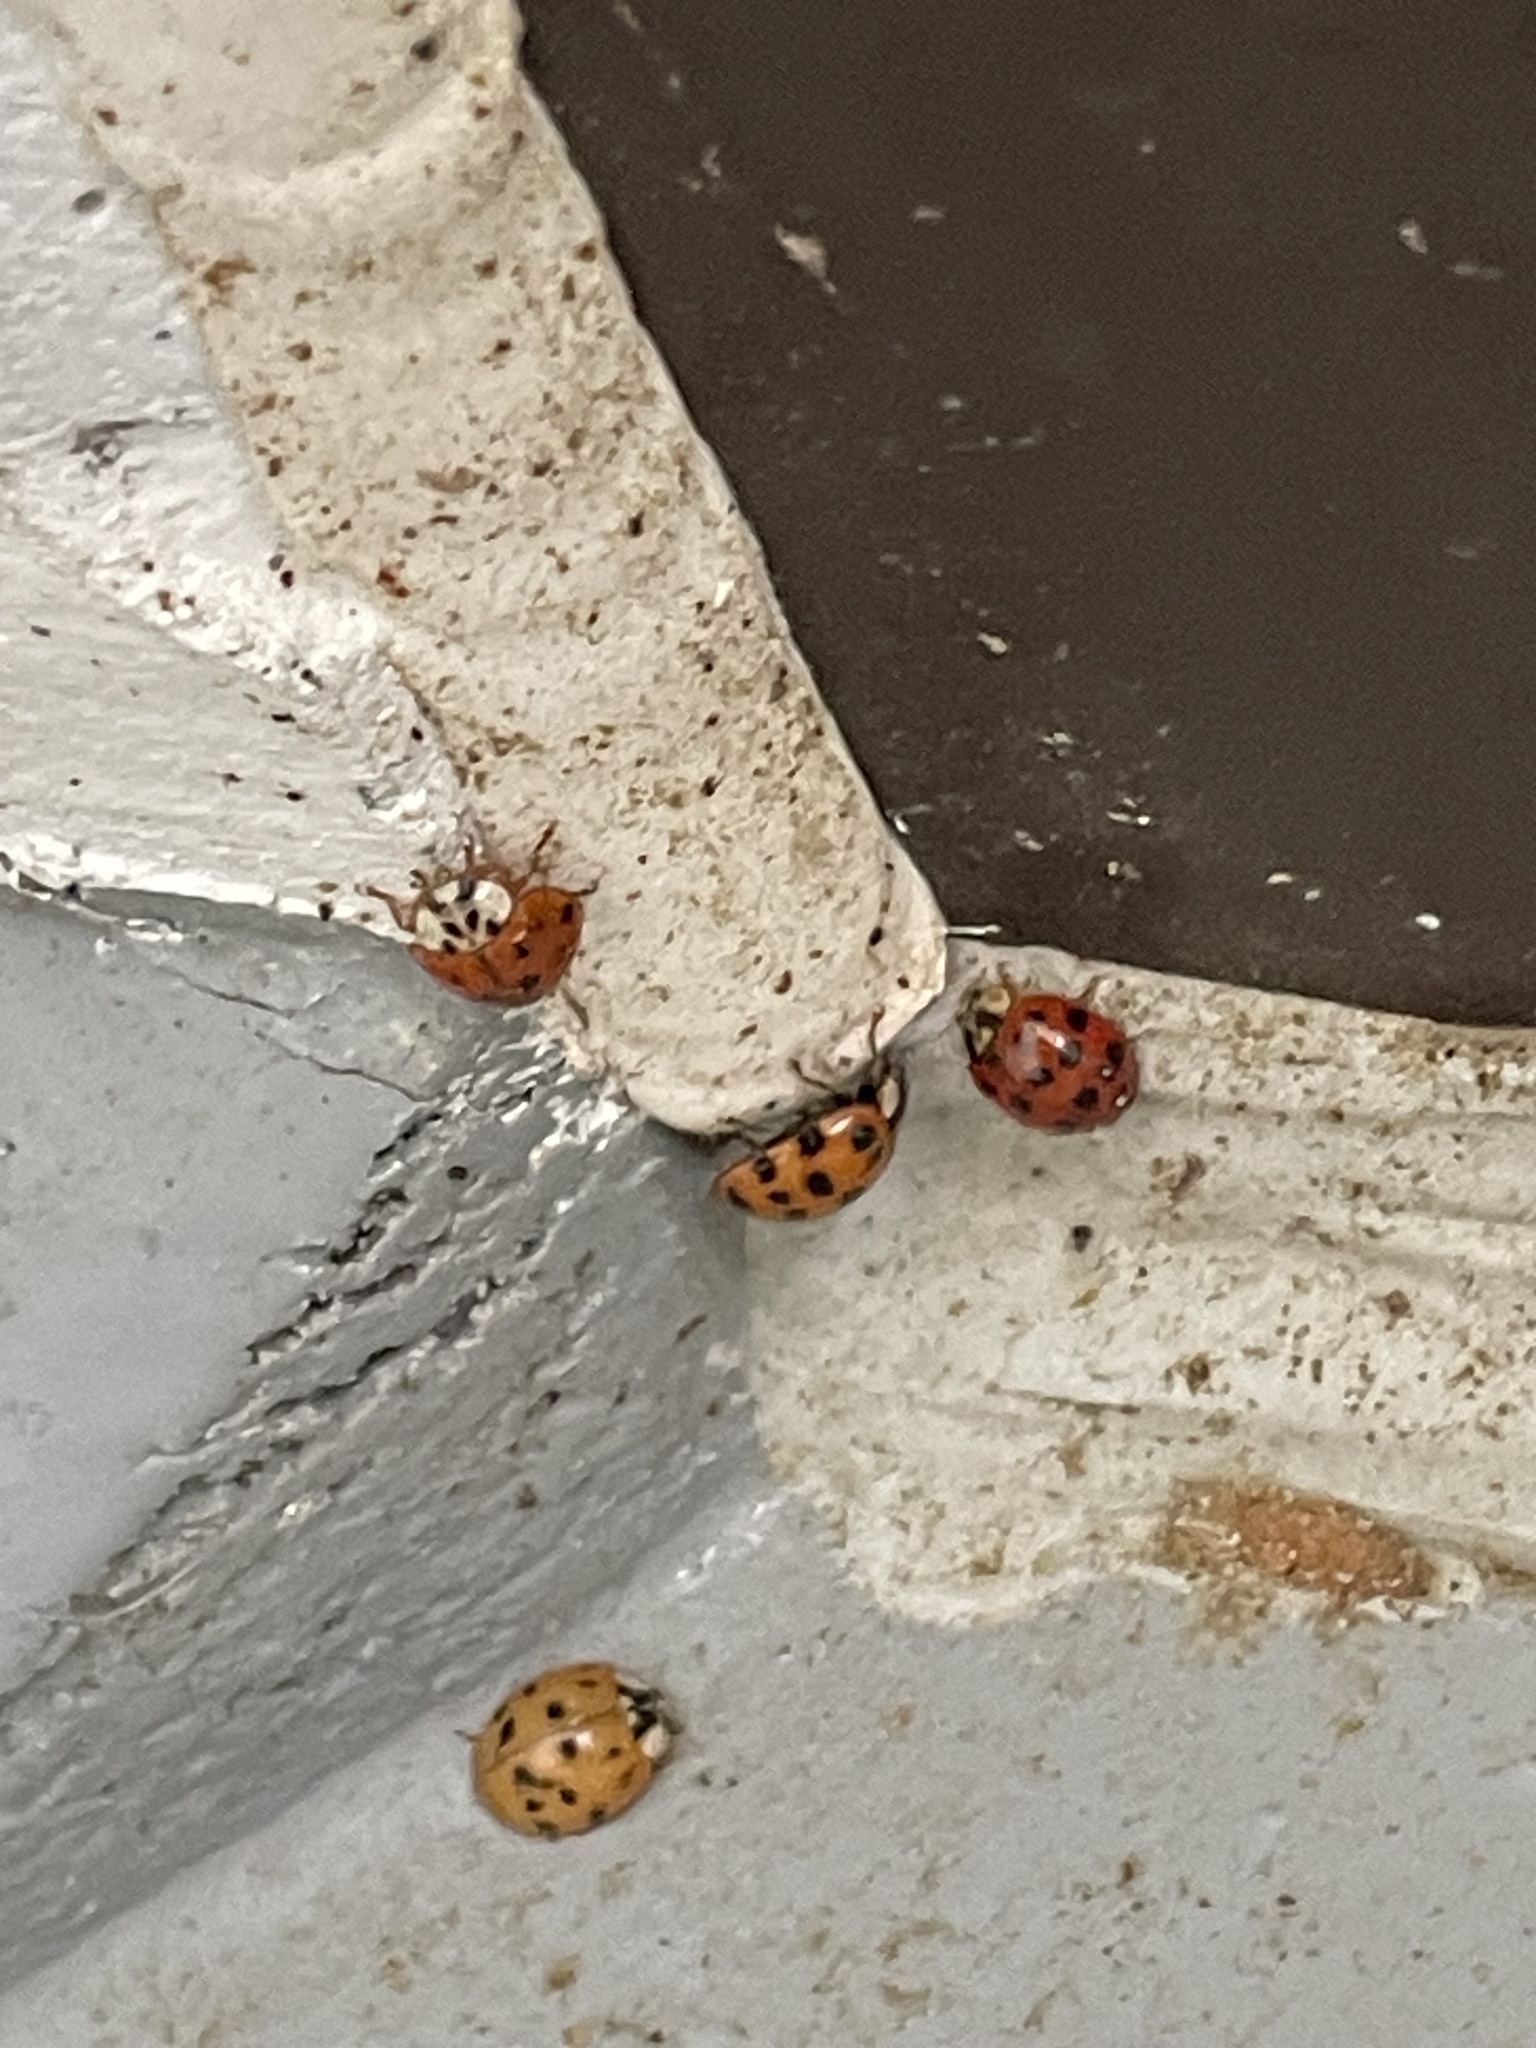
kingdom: Animalia
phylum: Arthropoda
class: Insecta
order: Coleoptera
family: Coccinellidae
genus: Harmonia
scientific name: Harmonia axyridis
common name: Harlequin ladybird
